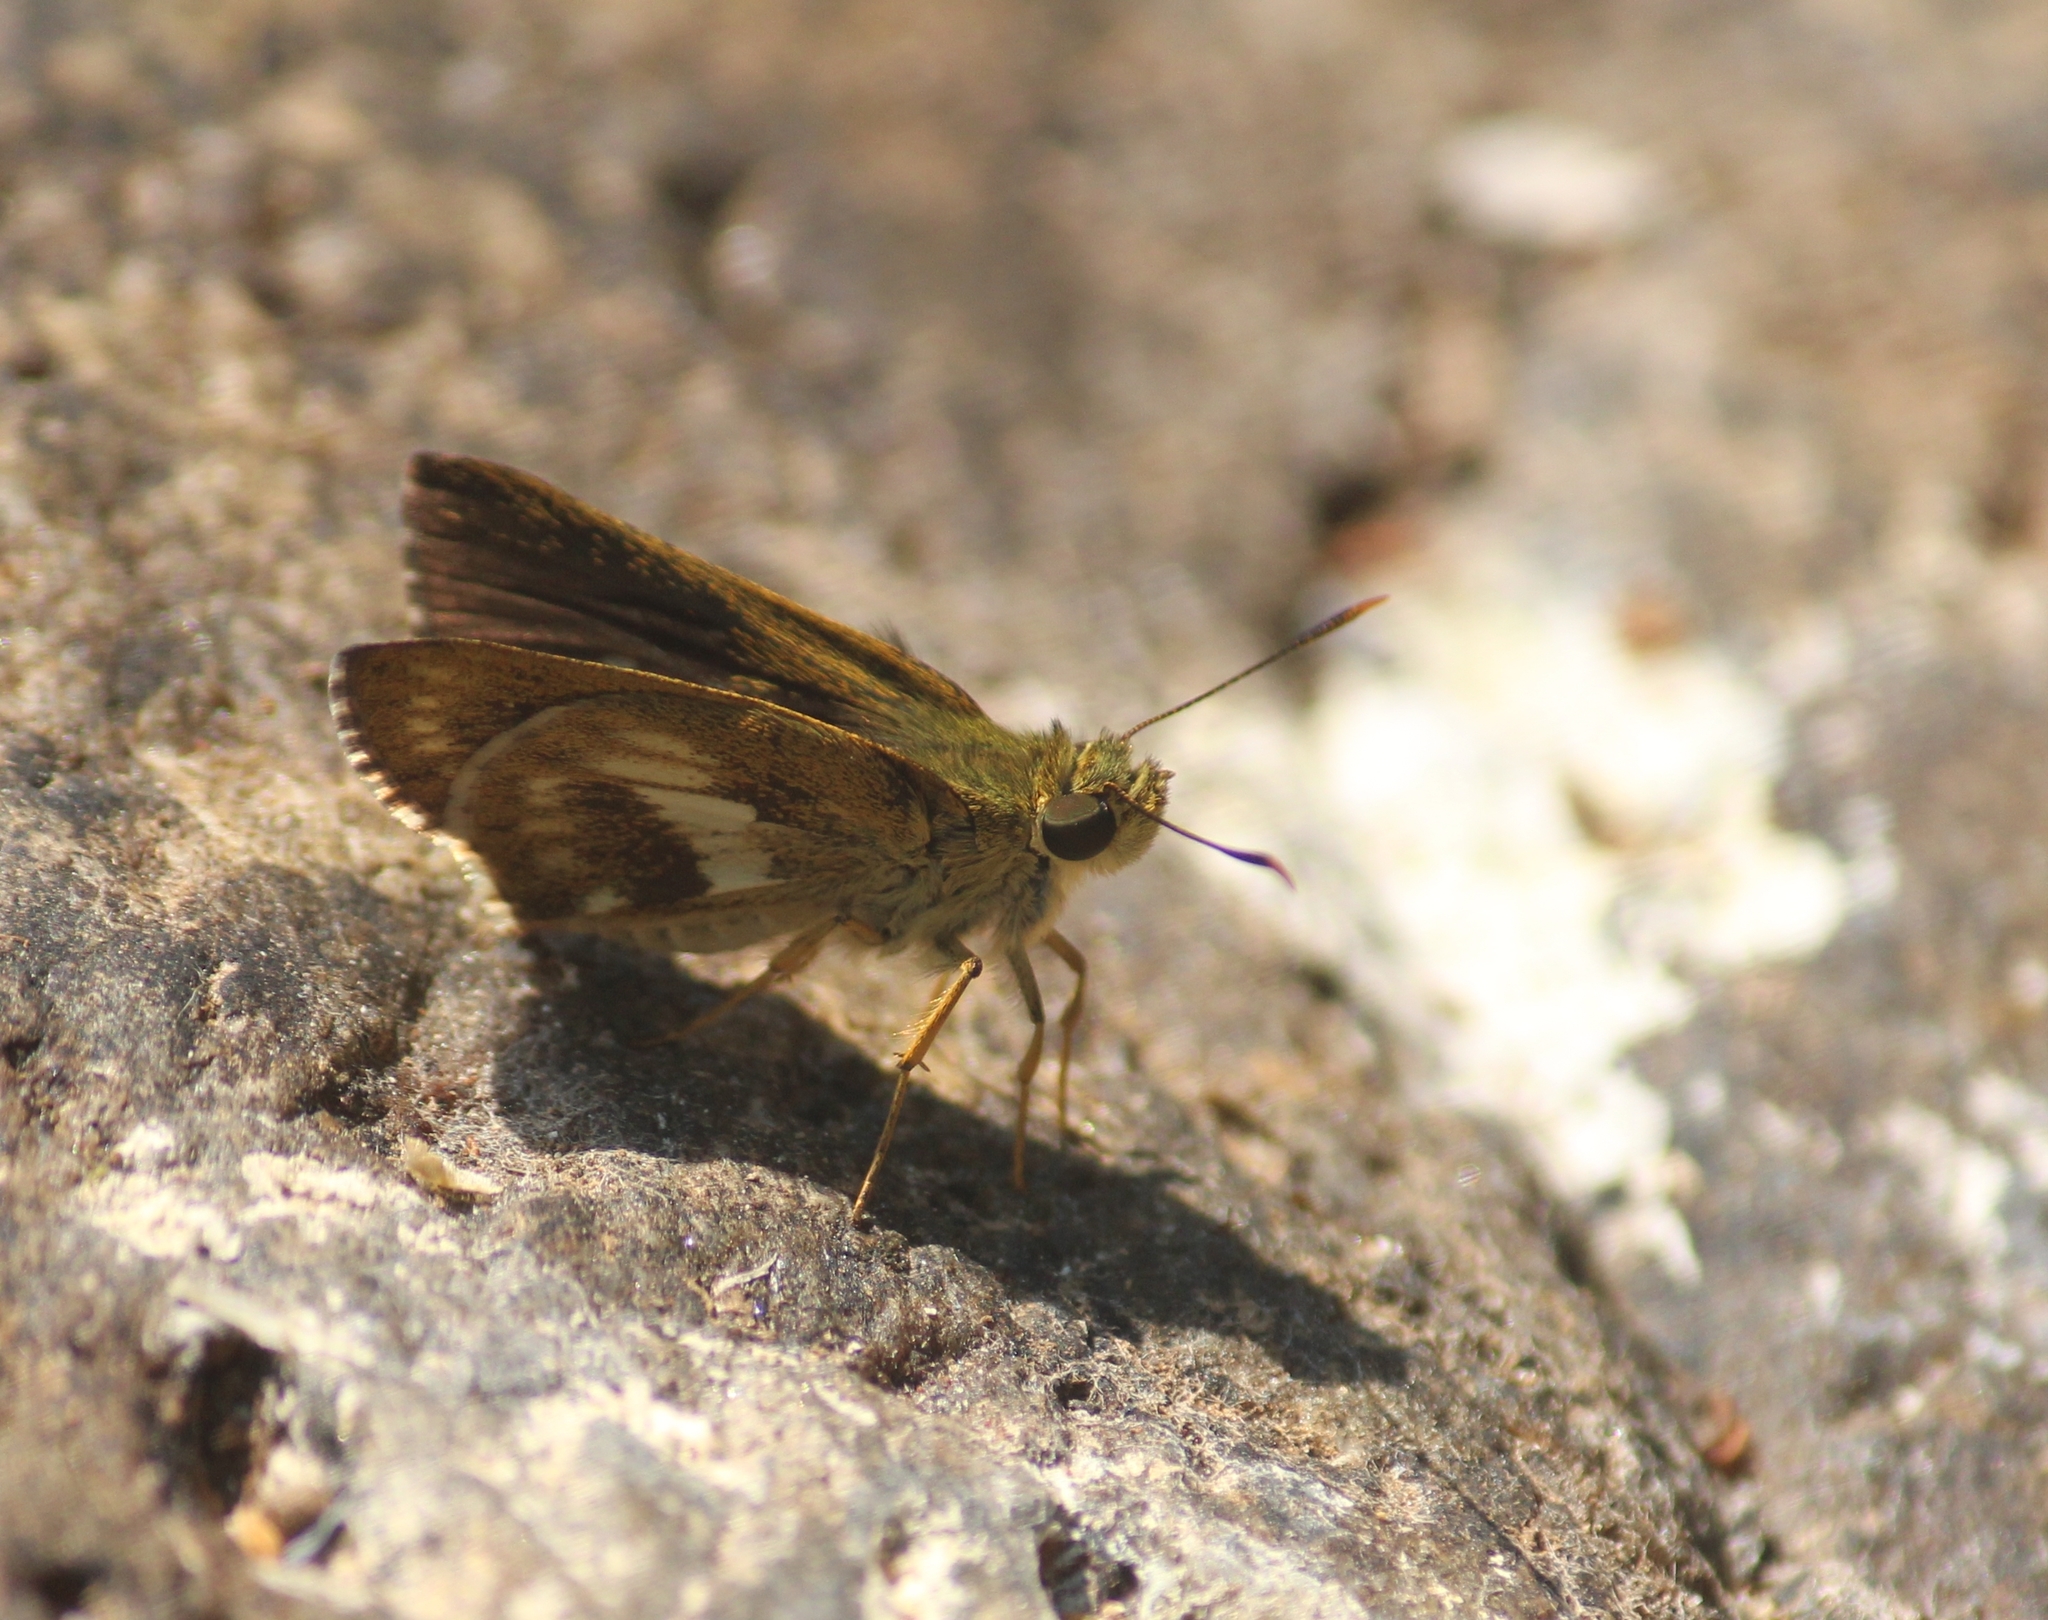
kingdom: Animalia
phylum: Arthropoda
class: Insecta
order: Lepidoptera
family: Hesperiidae
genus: Halpe
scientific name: Halpe porus
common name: Moore's ace
